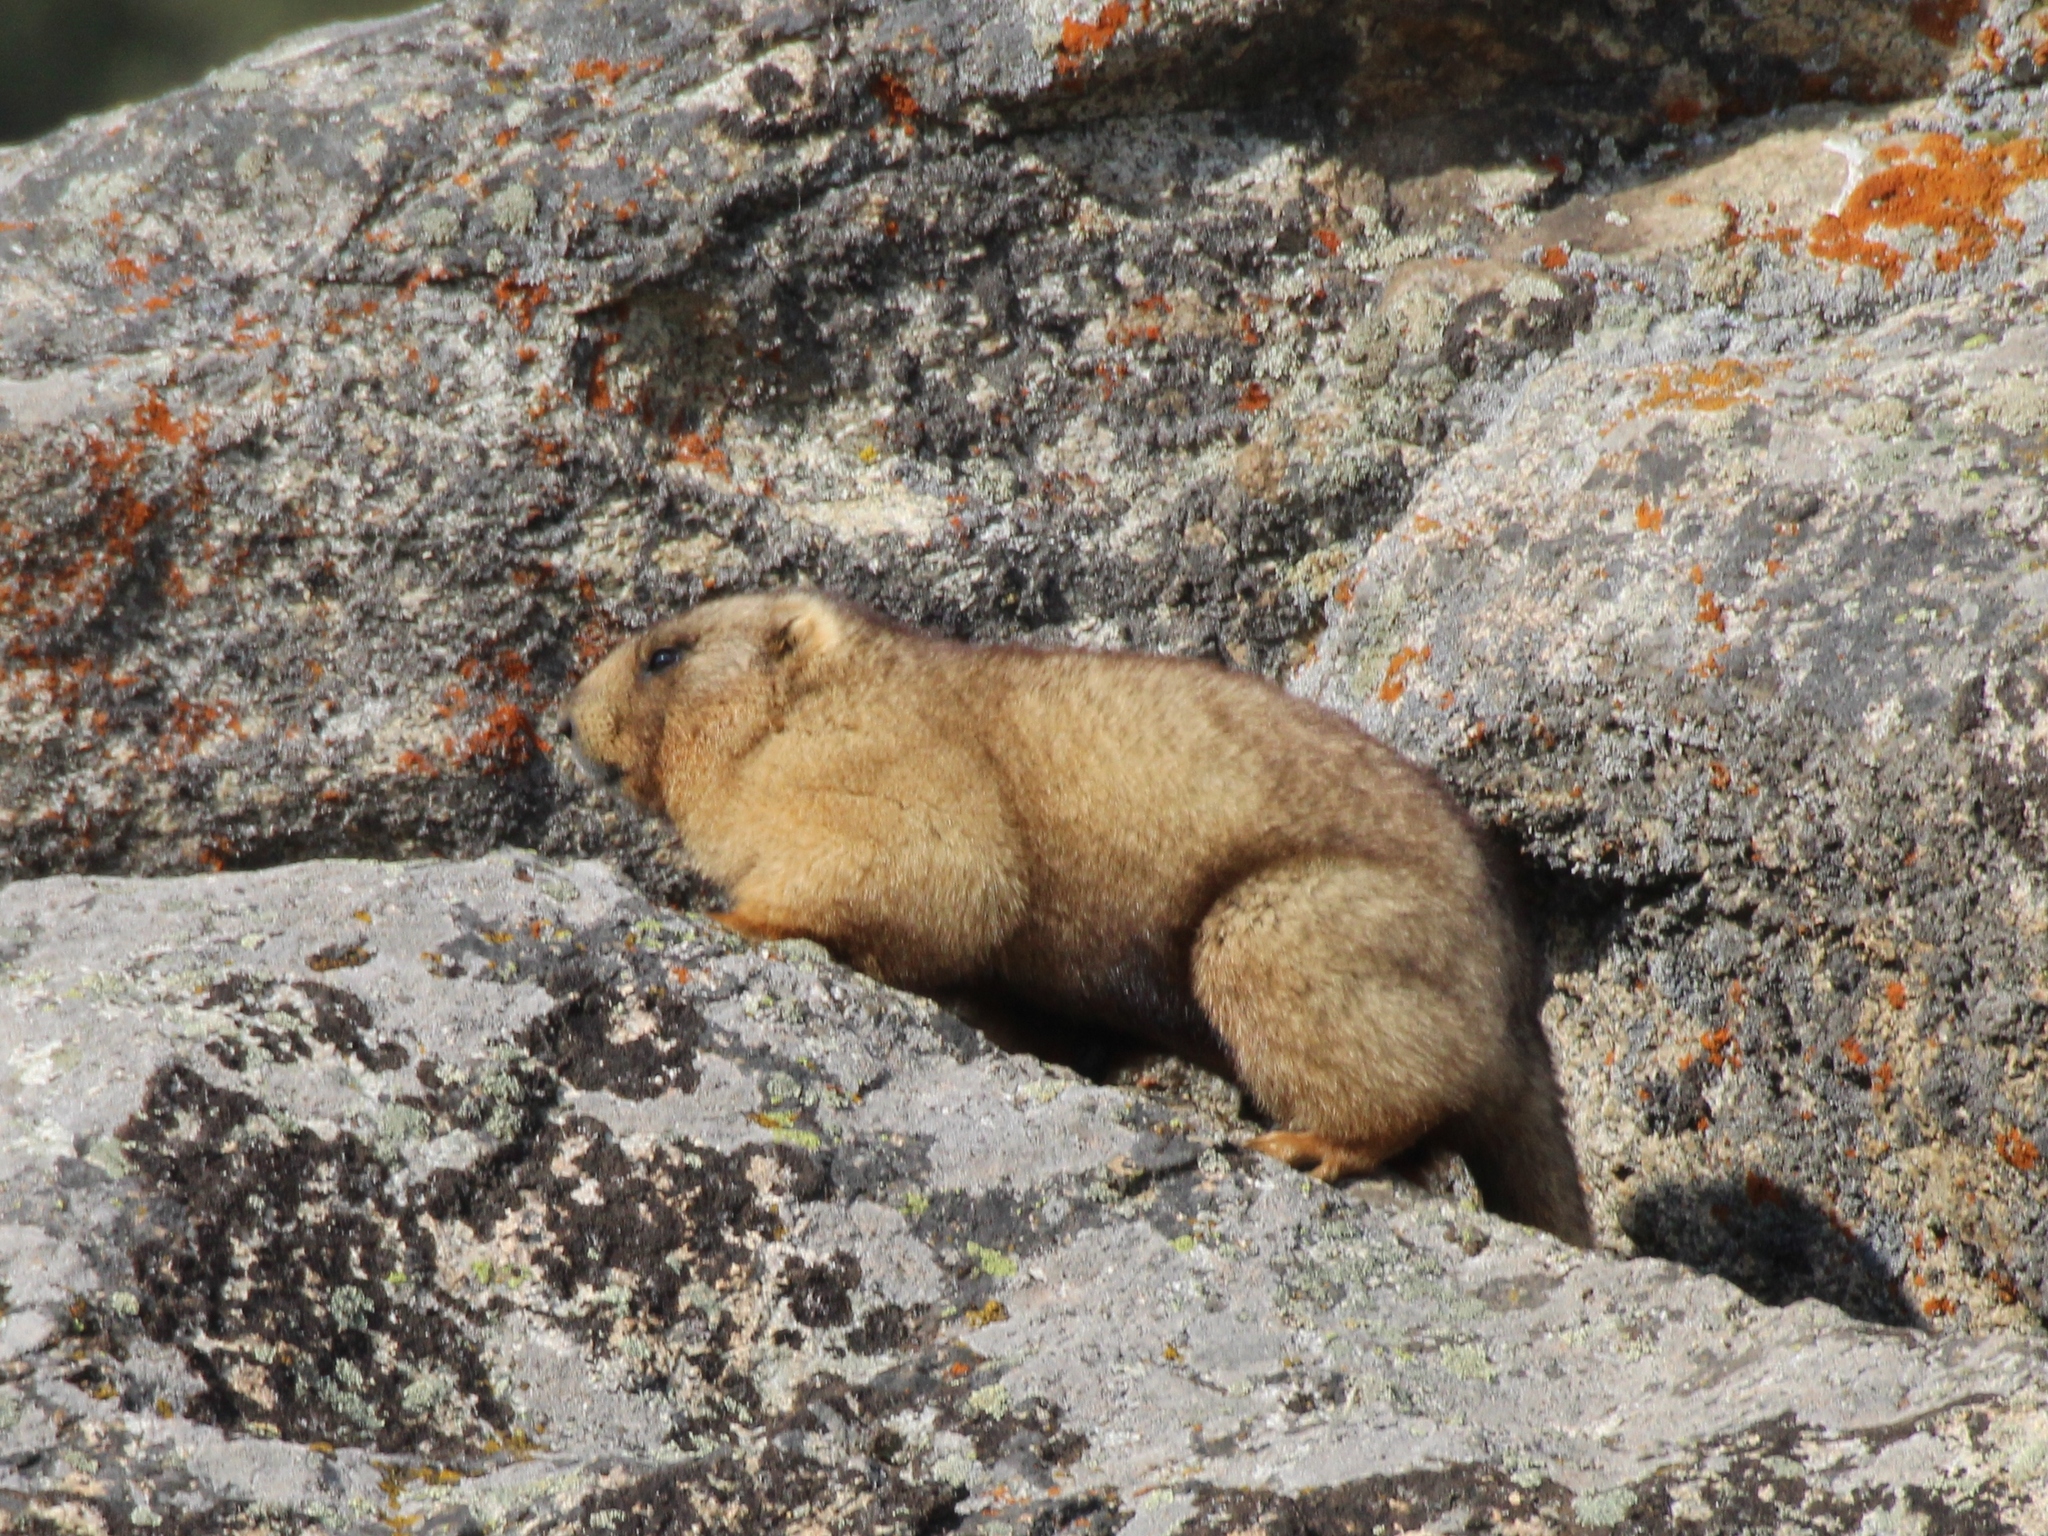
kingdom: Animalia
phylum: Chordata
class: Mammalia
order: Rodentia
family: Sciuridae
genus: Marmota
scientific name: Marmota baibacina
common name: Gray marmot
